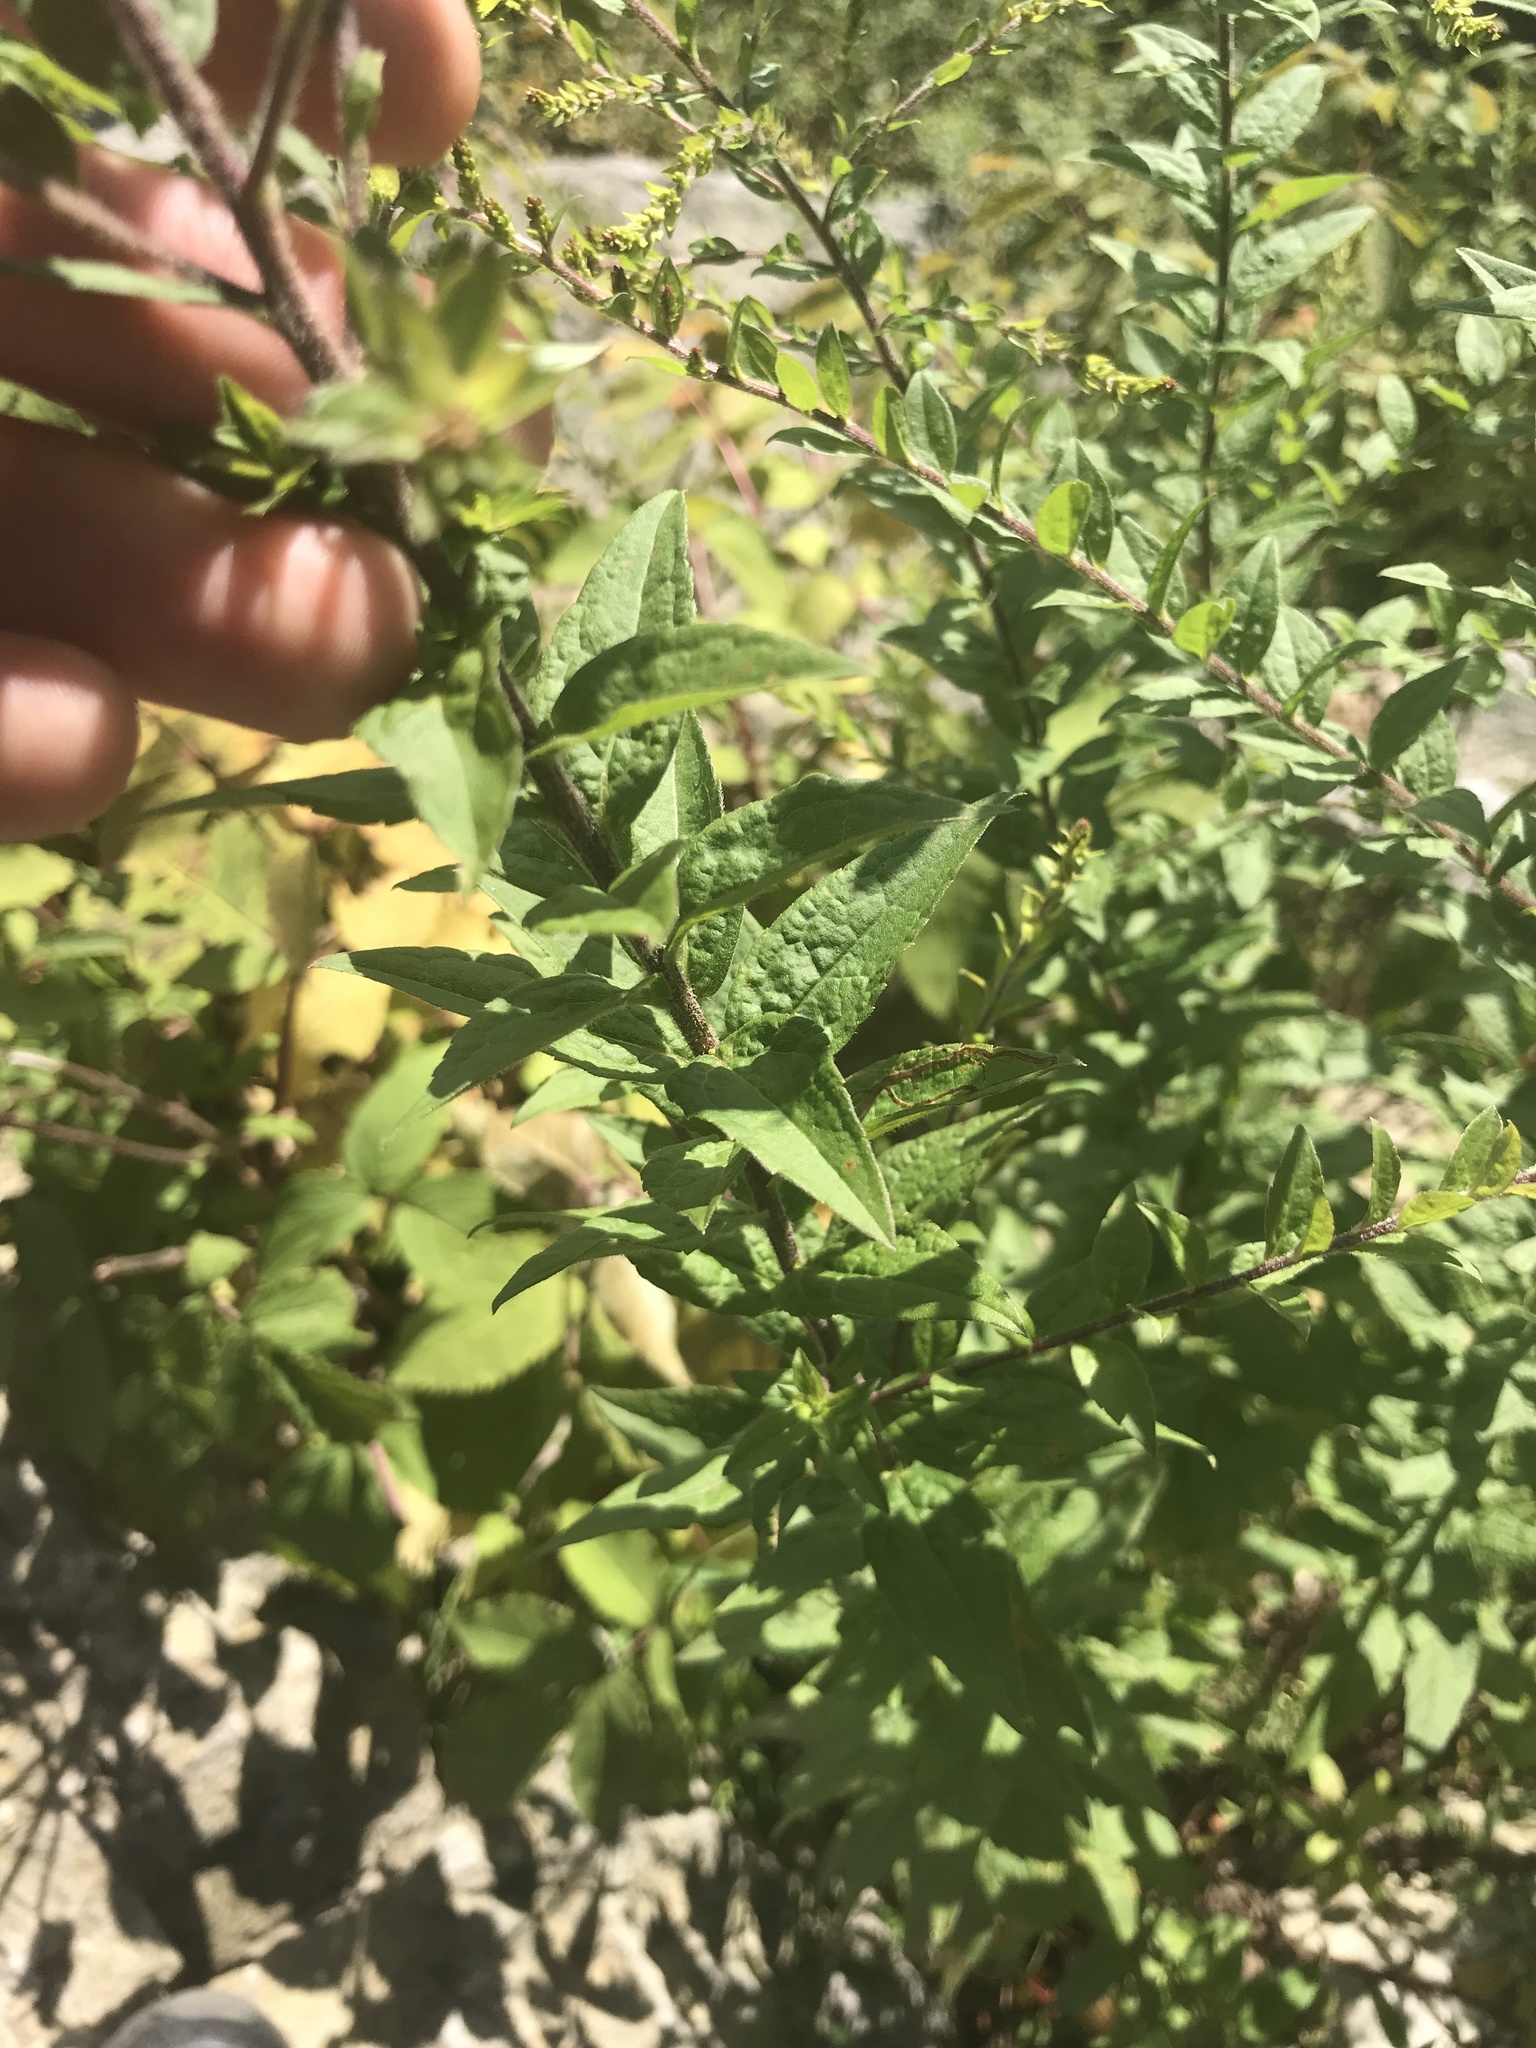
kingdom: Plantae
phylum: Tracheophyta
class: Magnoliopsida
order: Asterales
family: Asteraceae
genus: Solidago
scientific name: Solidago rugosa
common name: Rough-stemmed goldenrod
